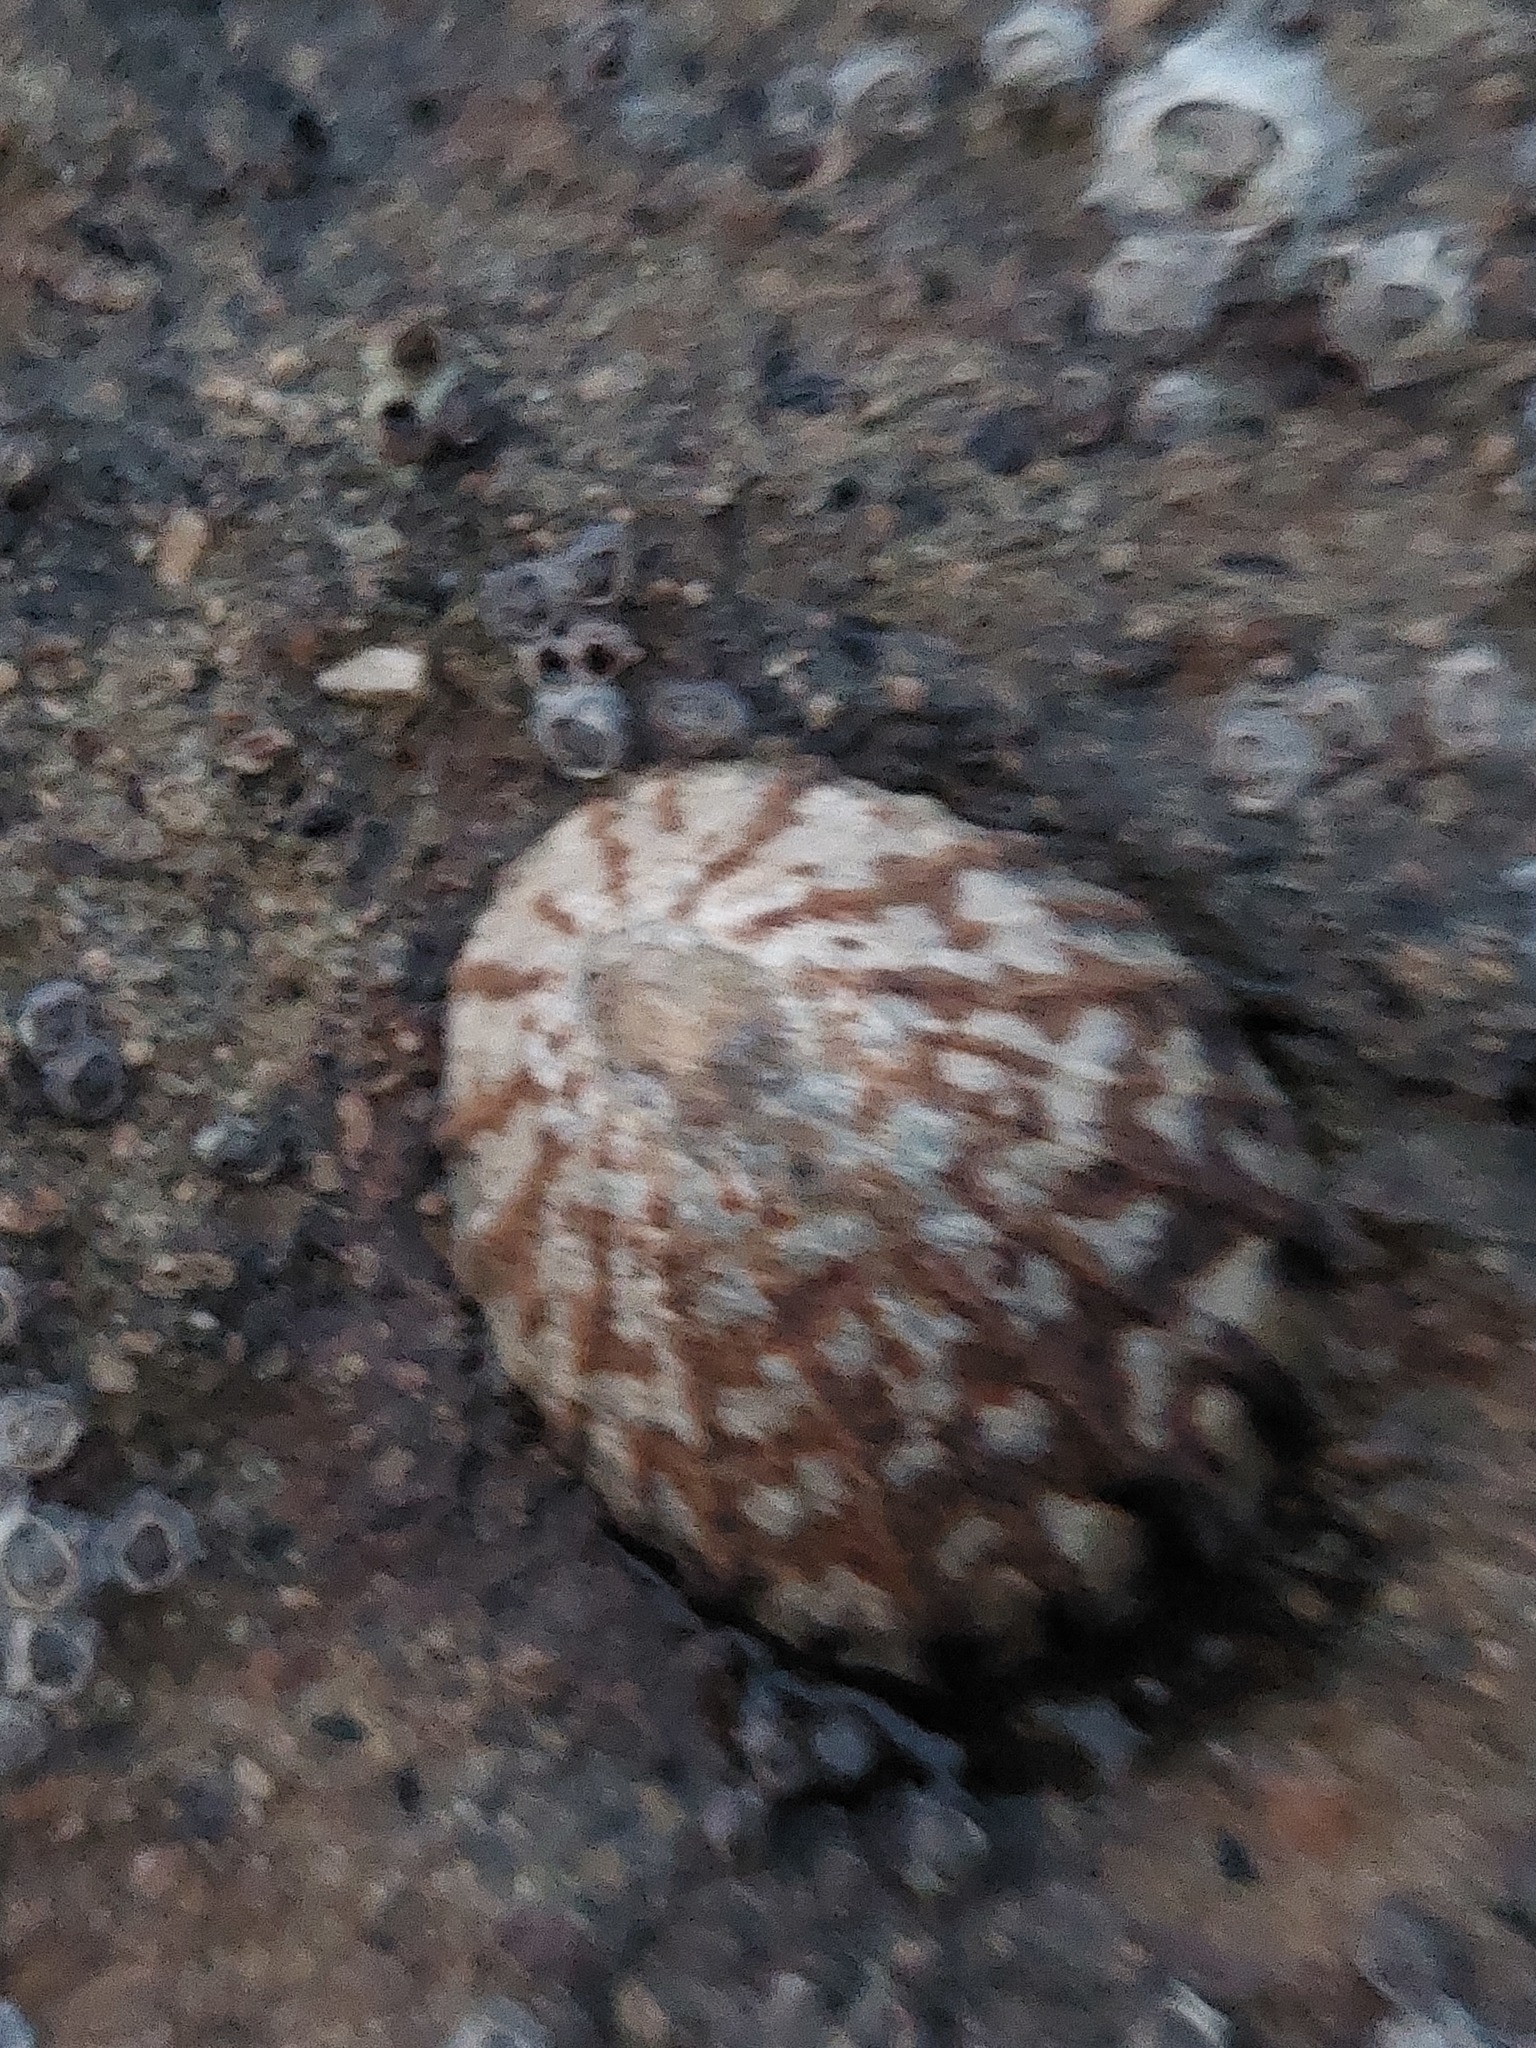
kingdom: Animalia
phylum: Mollusca
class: Gastropoda
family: Nacellidae
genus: Cellana
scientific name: Cellana radians
